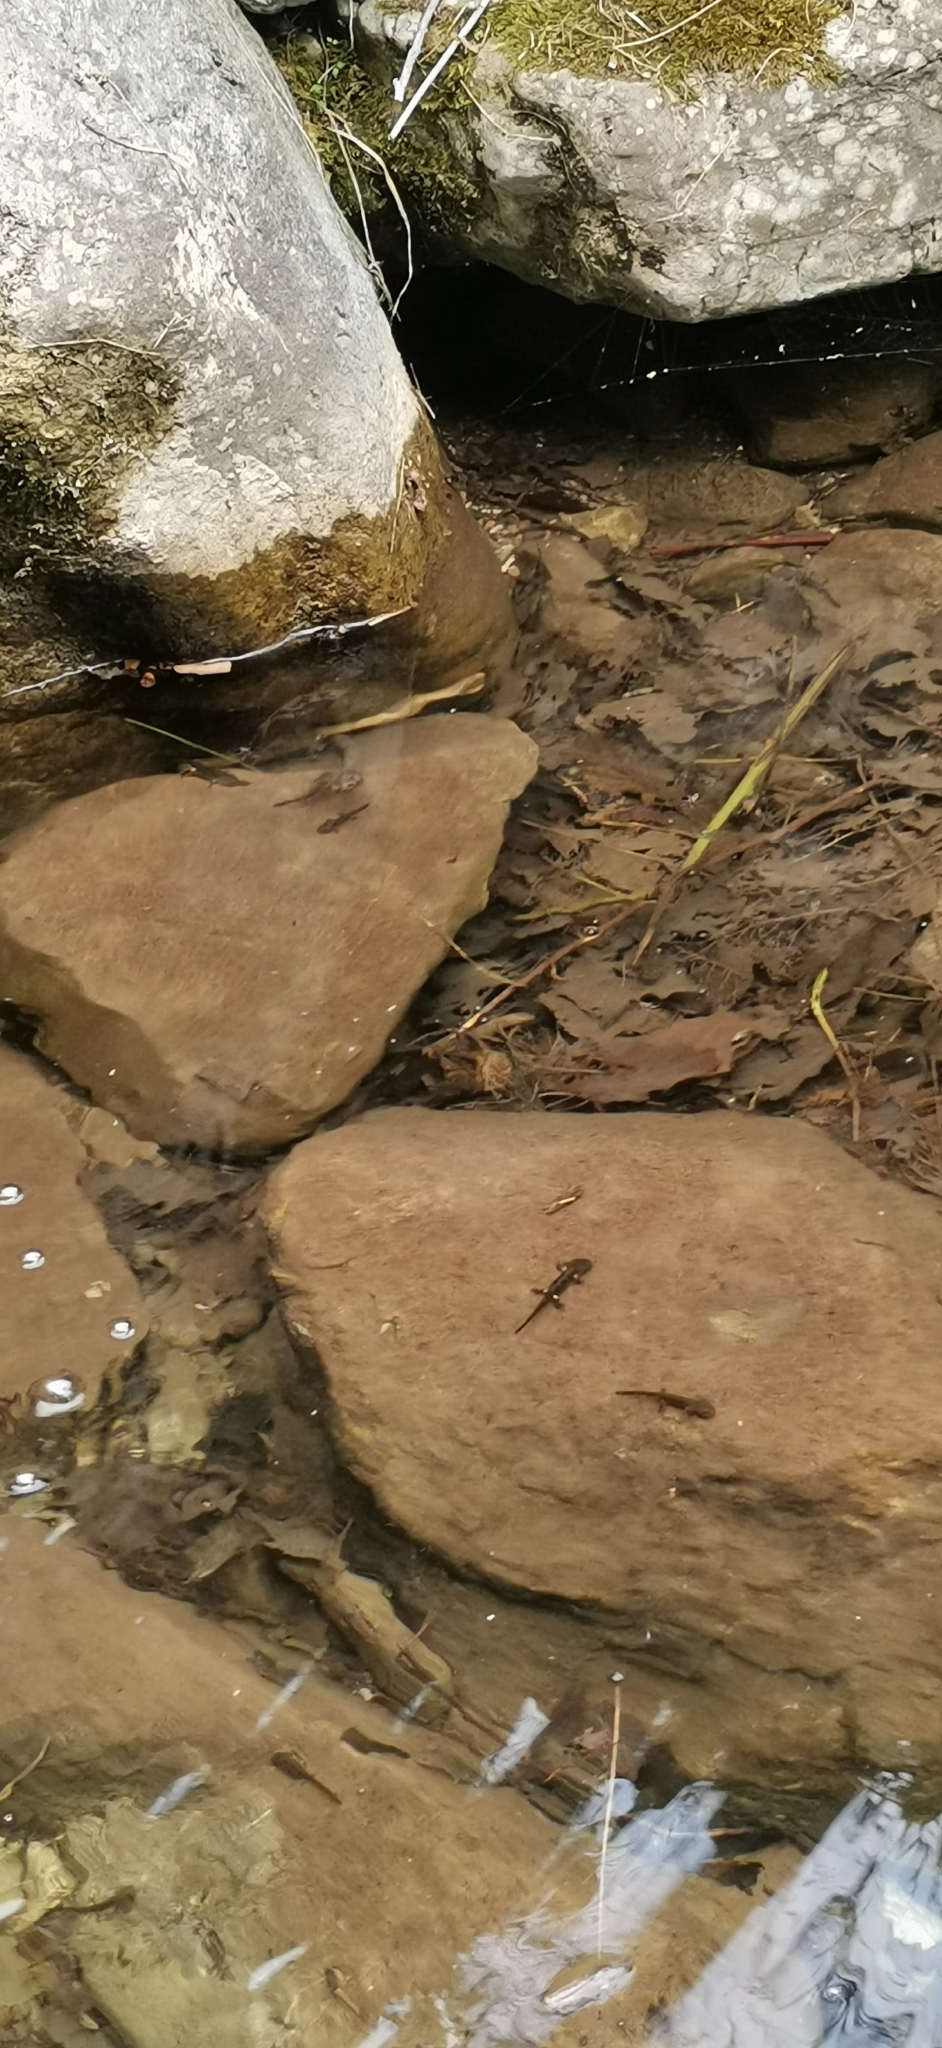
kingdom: Animalia
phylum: Chordata
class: Amphibia
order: Caudata
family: Salamandridae
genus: Salamandra
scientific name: Salamandra salamandra
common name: Fire salamander
